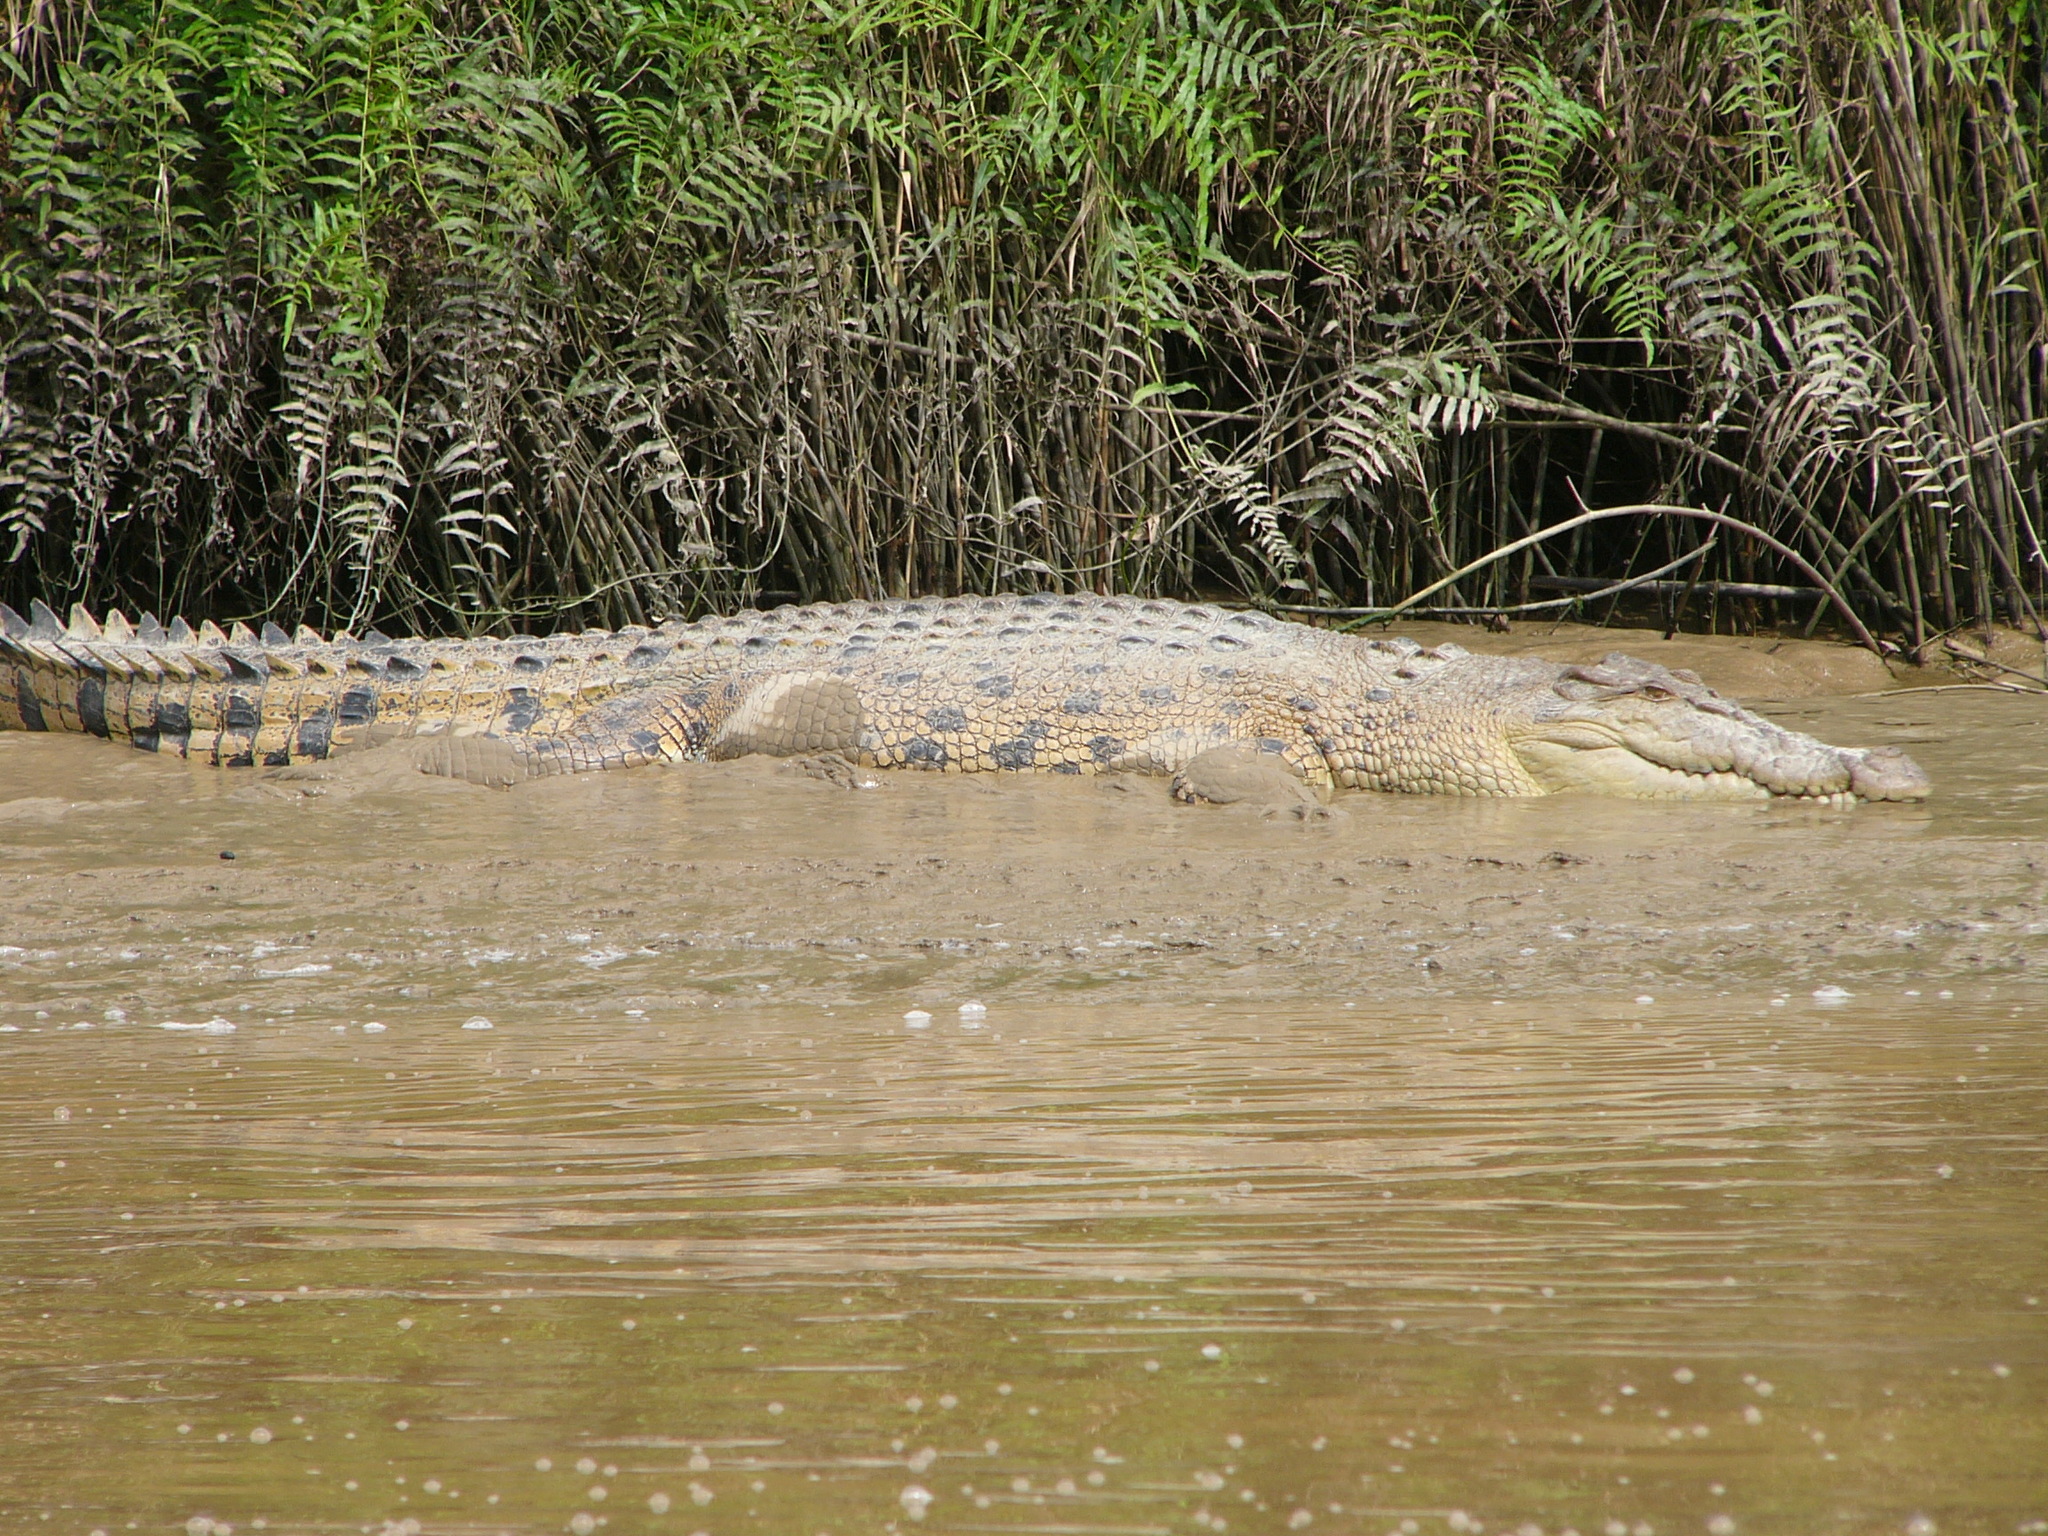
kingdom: Animalia
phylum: Chordata
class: Crocodylia
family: Crocodylidae
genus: Crocodylus
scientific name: Crocodylus porosus
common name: Saltwater crocodile
